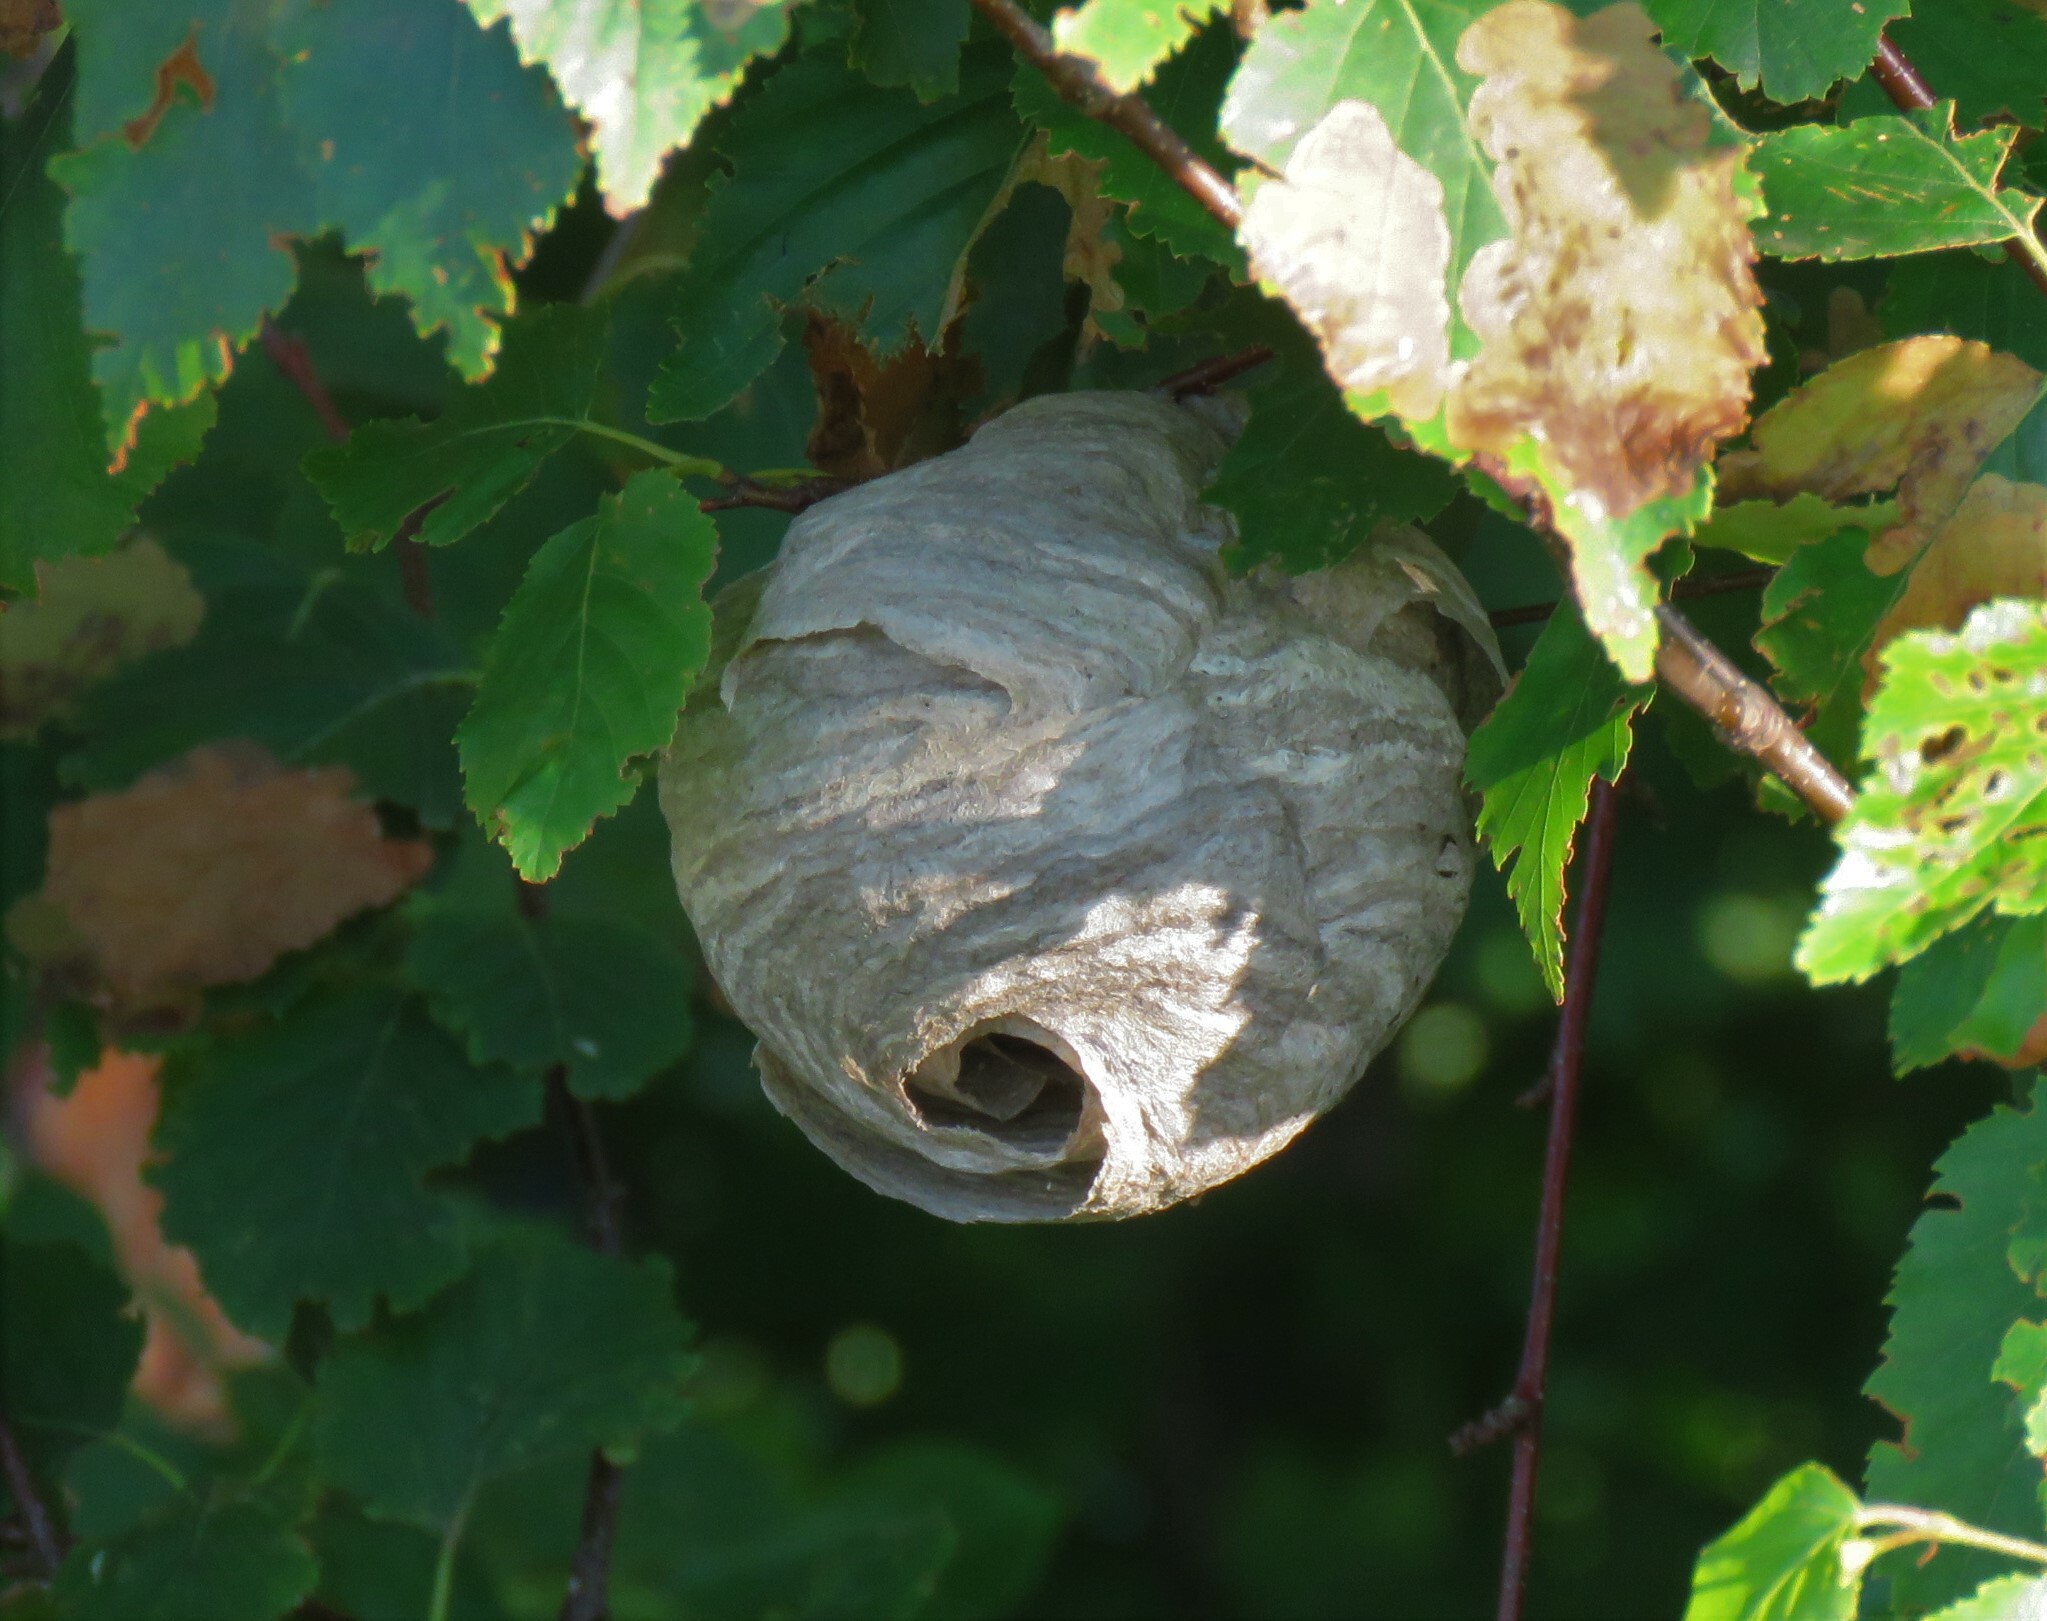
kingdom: Animalia
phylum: Arthropoda
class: Insecta
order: Hymenoptera
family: Vespidae
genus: Dolichovespula
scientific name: Dolichovespula
